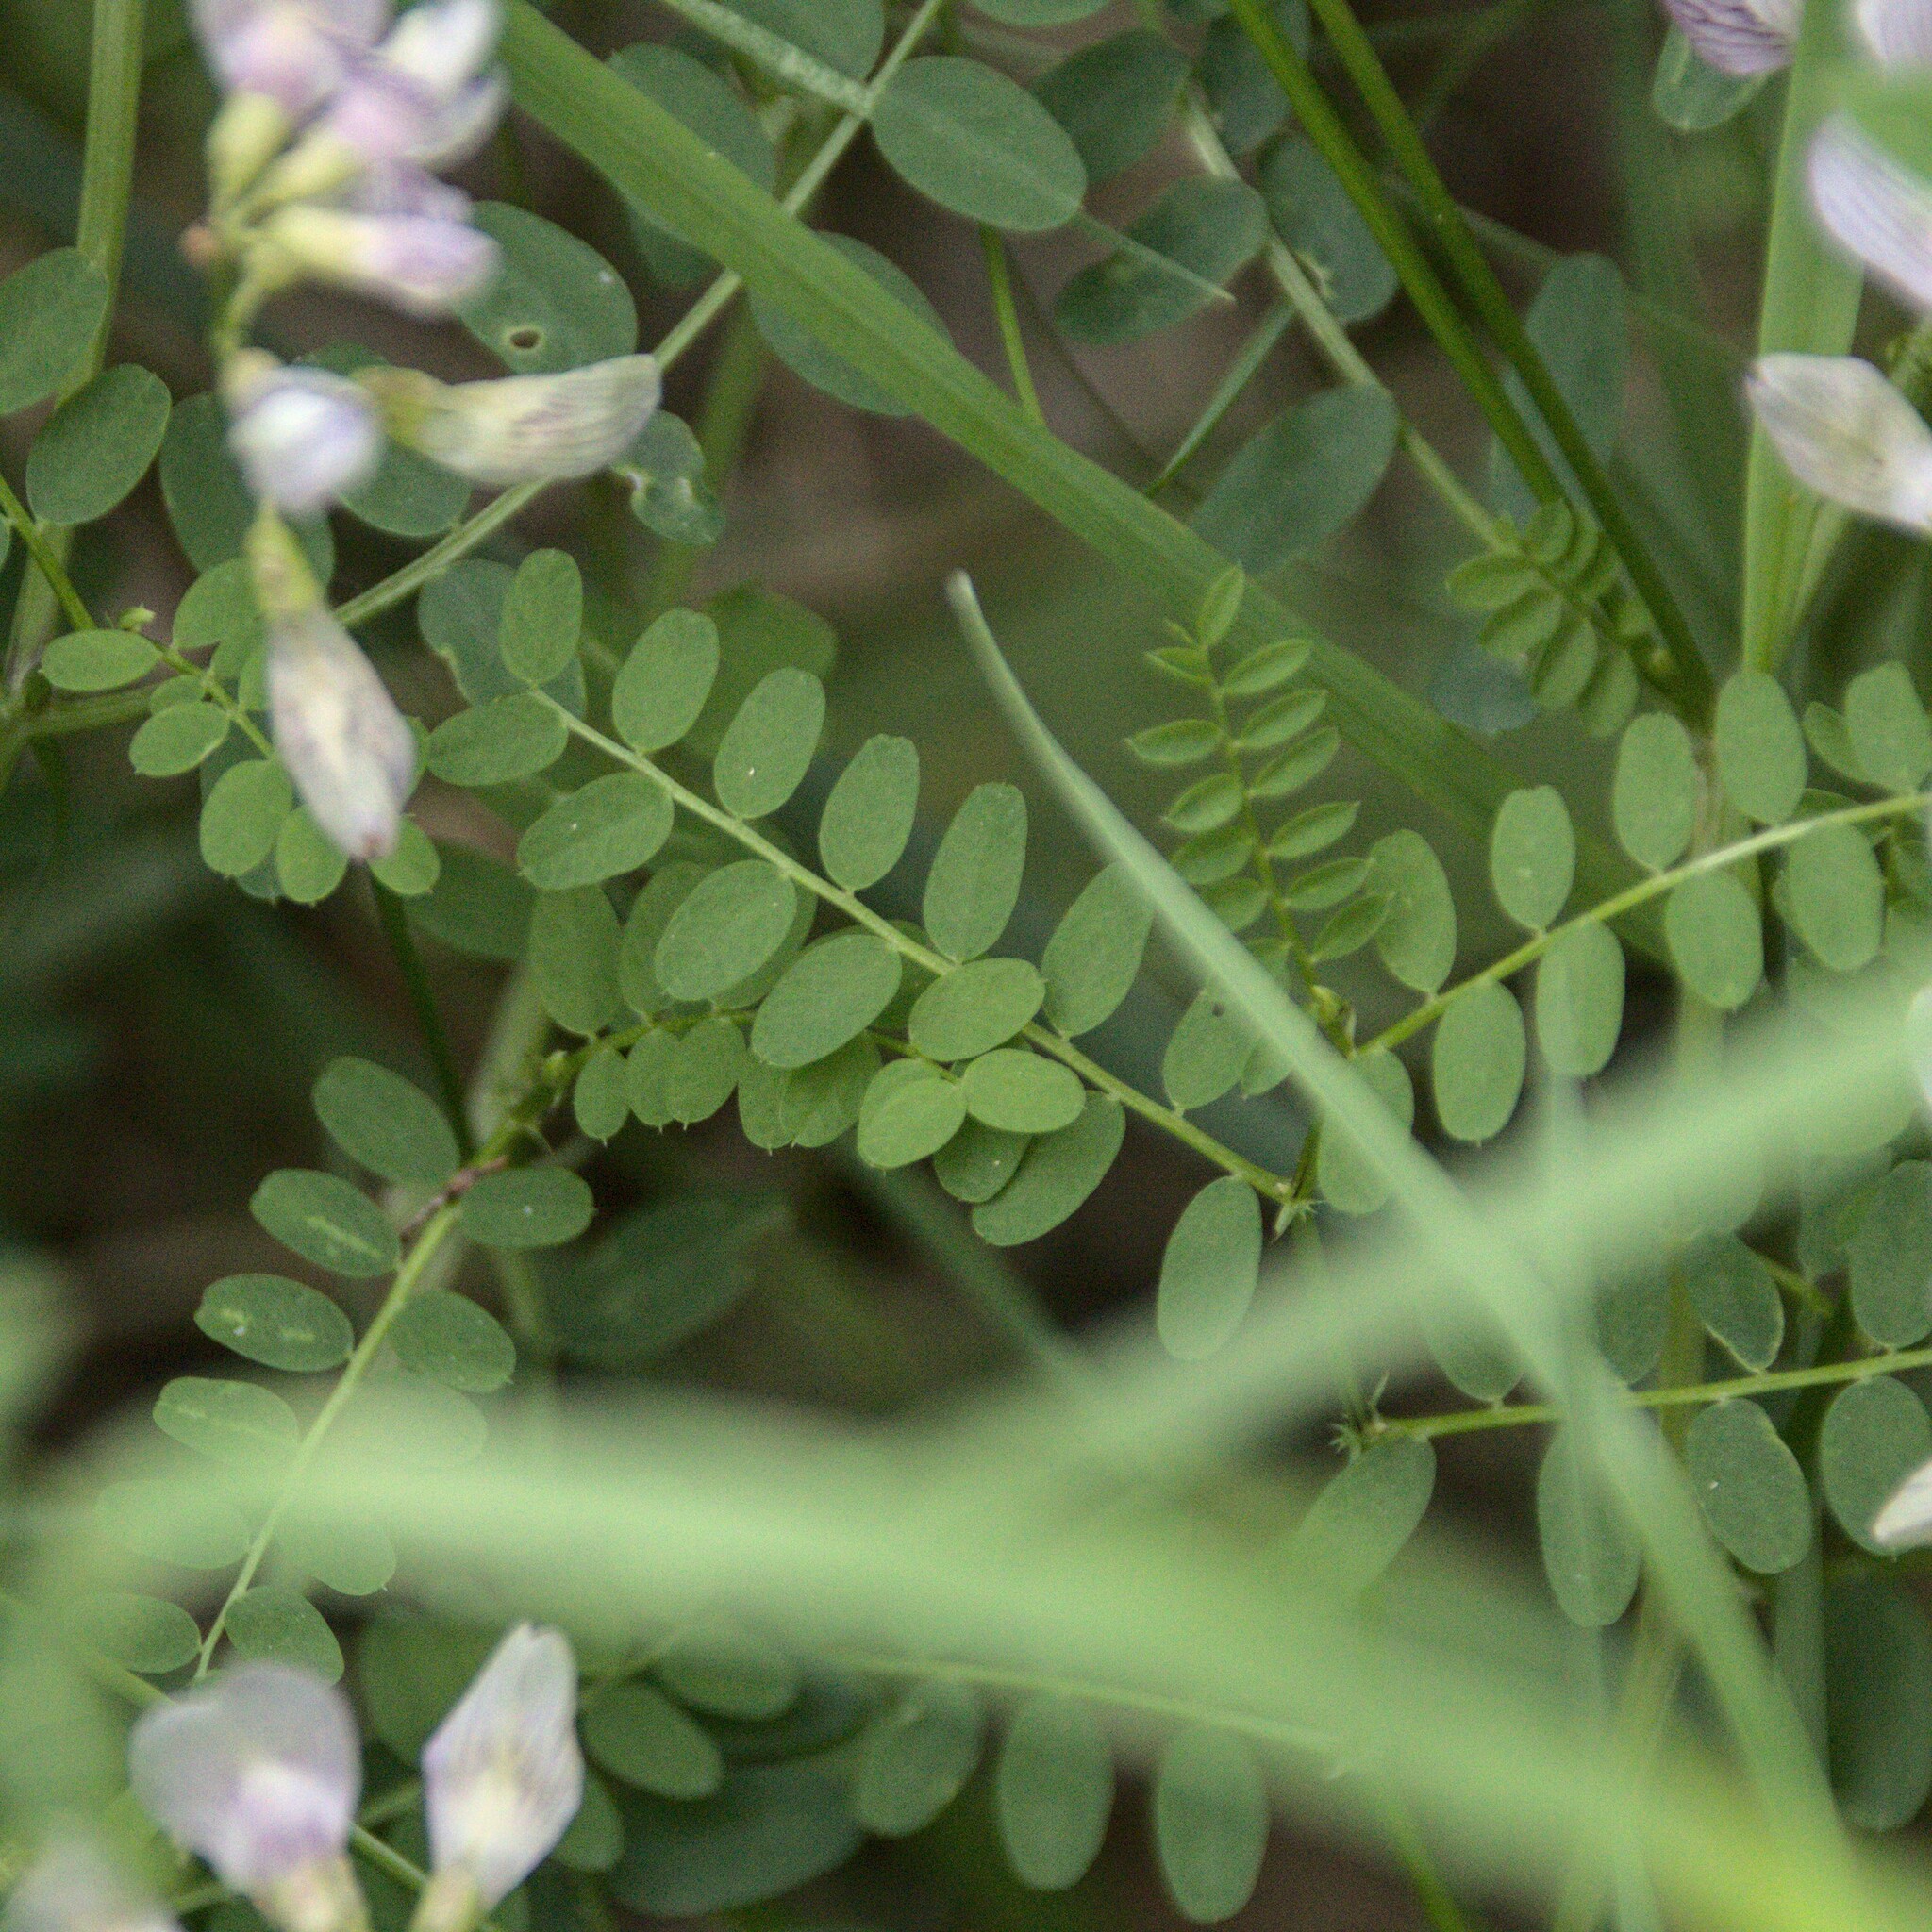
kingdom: Plantae
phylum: Tracheophyta
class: Magnoliopsida
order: Fabales
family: Fabaceae
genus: Vicia
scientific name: Vicia sylvatica
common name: Wood vetch
